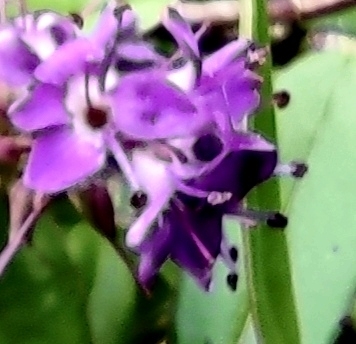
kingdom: Plantae
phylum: Tracheophyta
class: Magnoliopsida
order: Lamiales
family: Plantaginaceae
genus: Veronica
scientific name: Veronica franciscana
